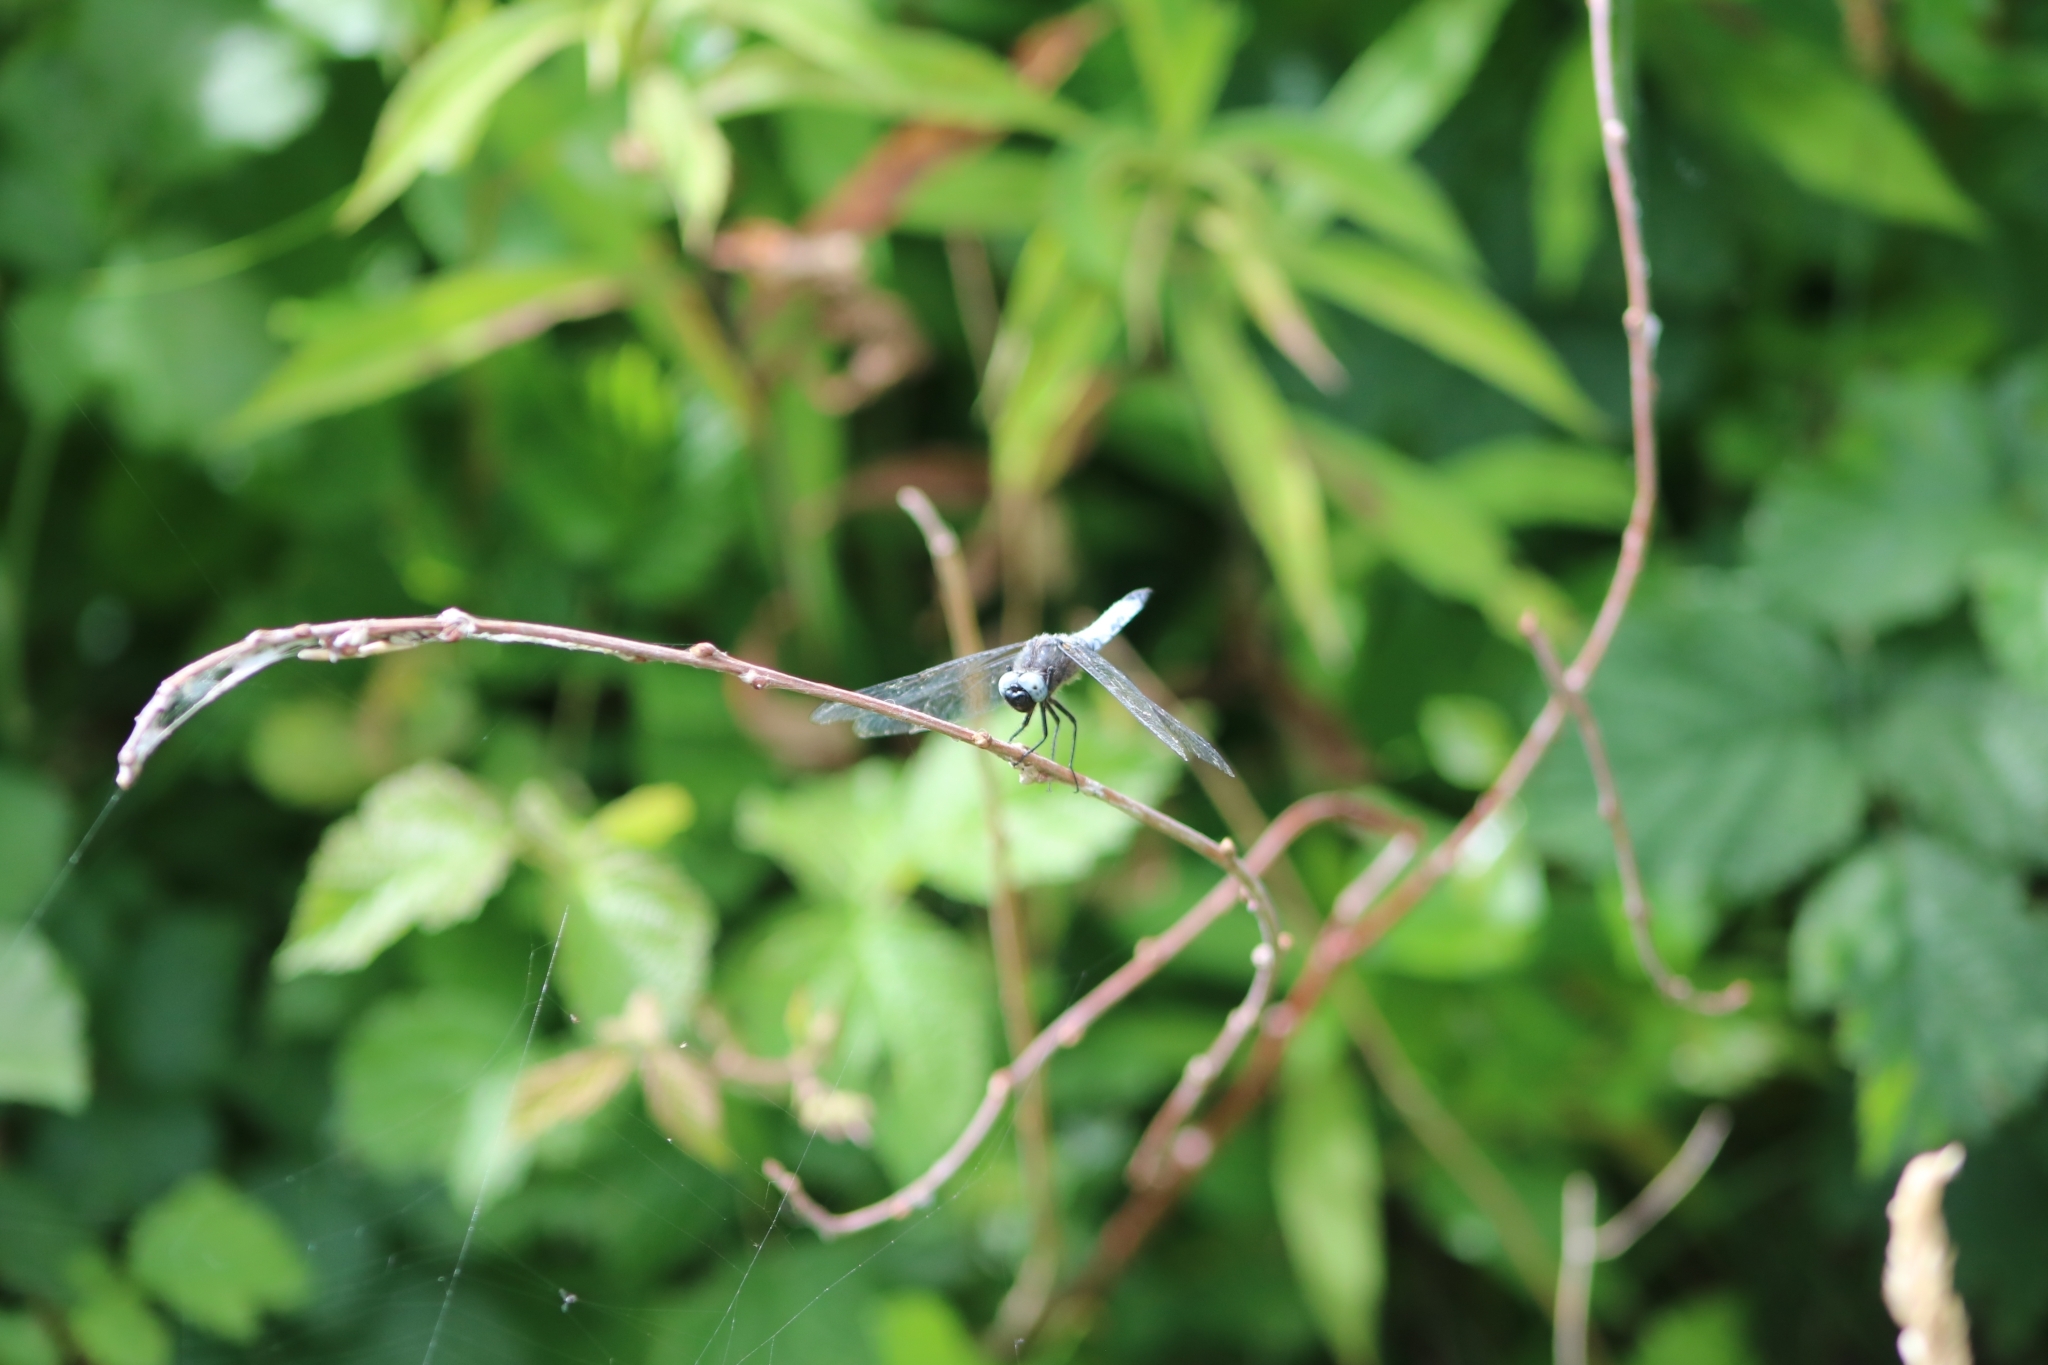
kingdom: Animalia
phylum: Arthropoda
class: Insecta
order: Odonata
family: Libellulidae
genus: Libellula
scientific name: Libellula fulva
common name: Blue chaser
